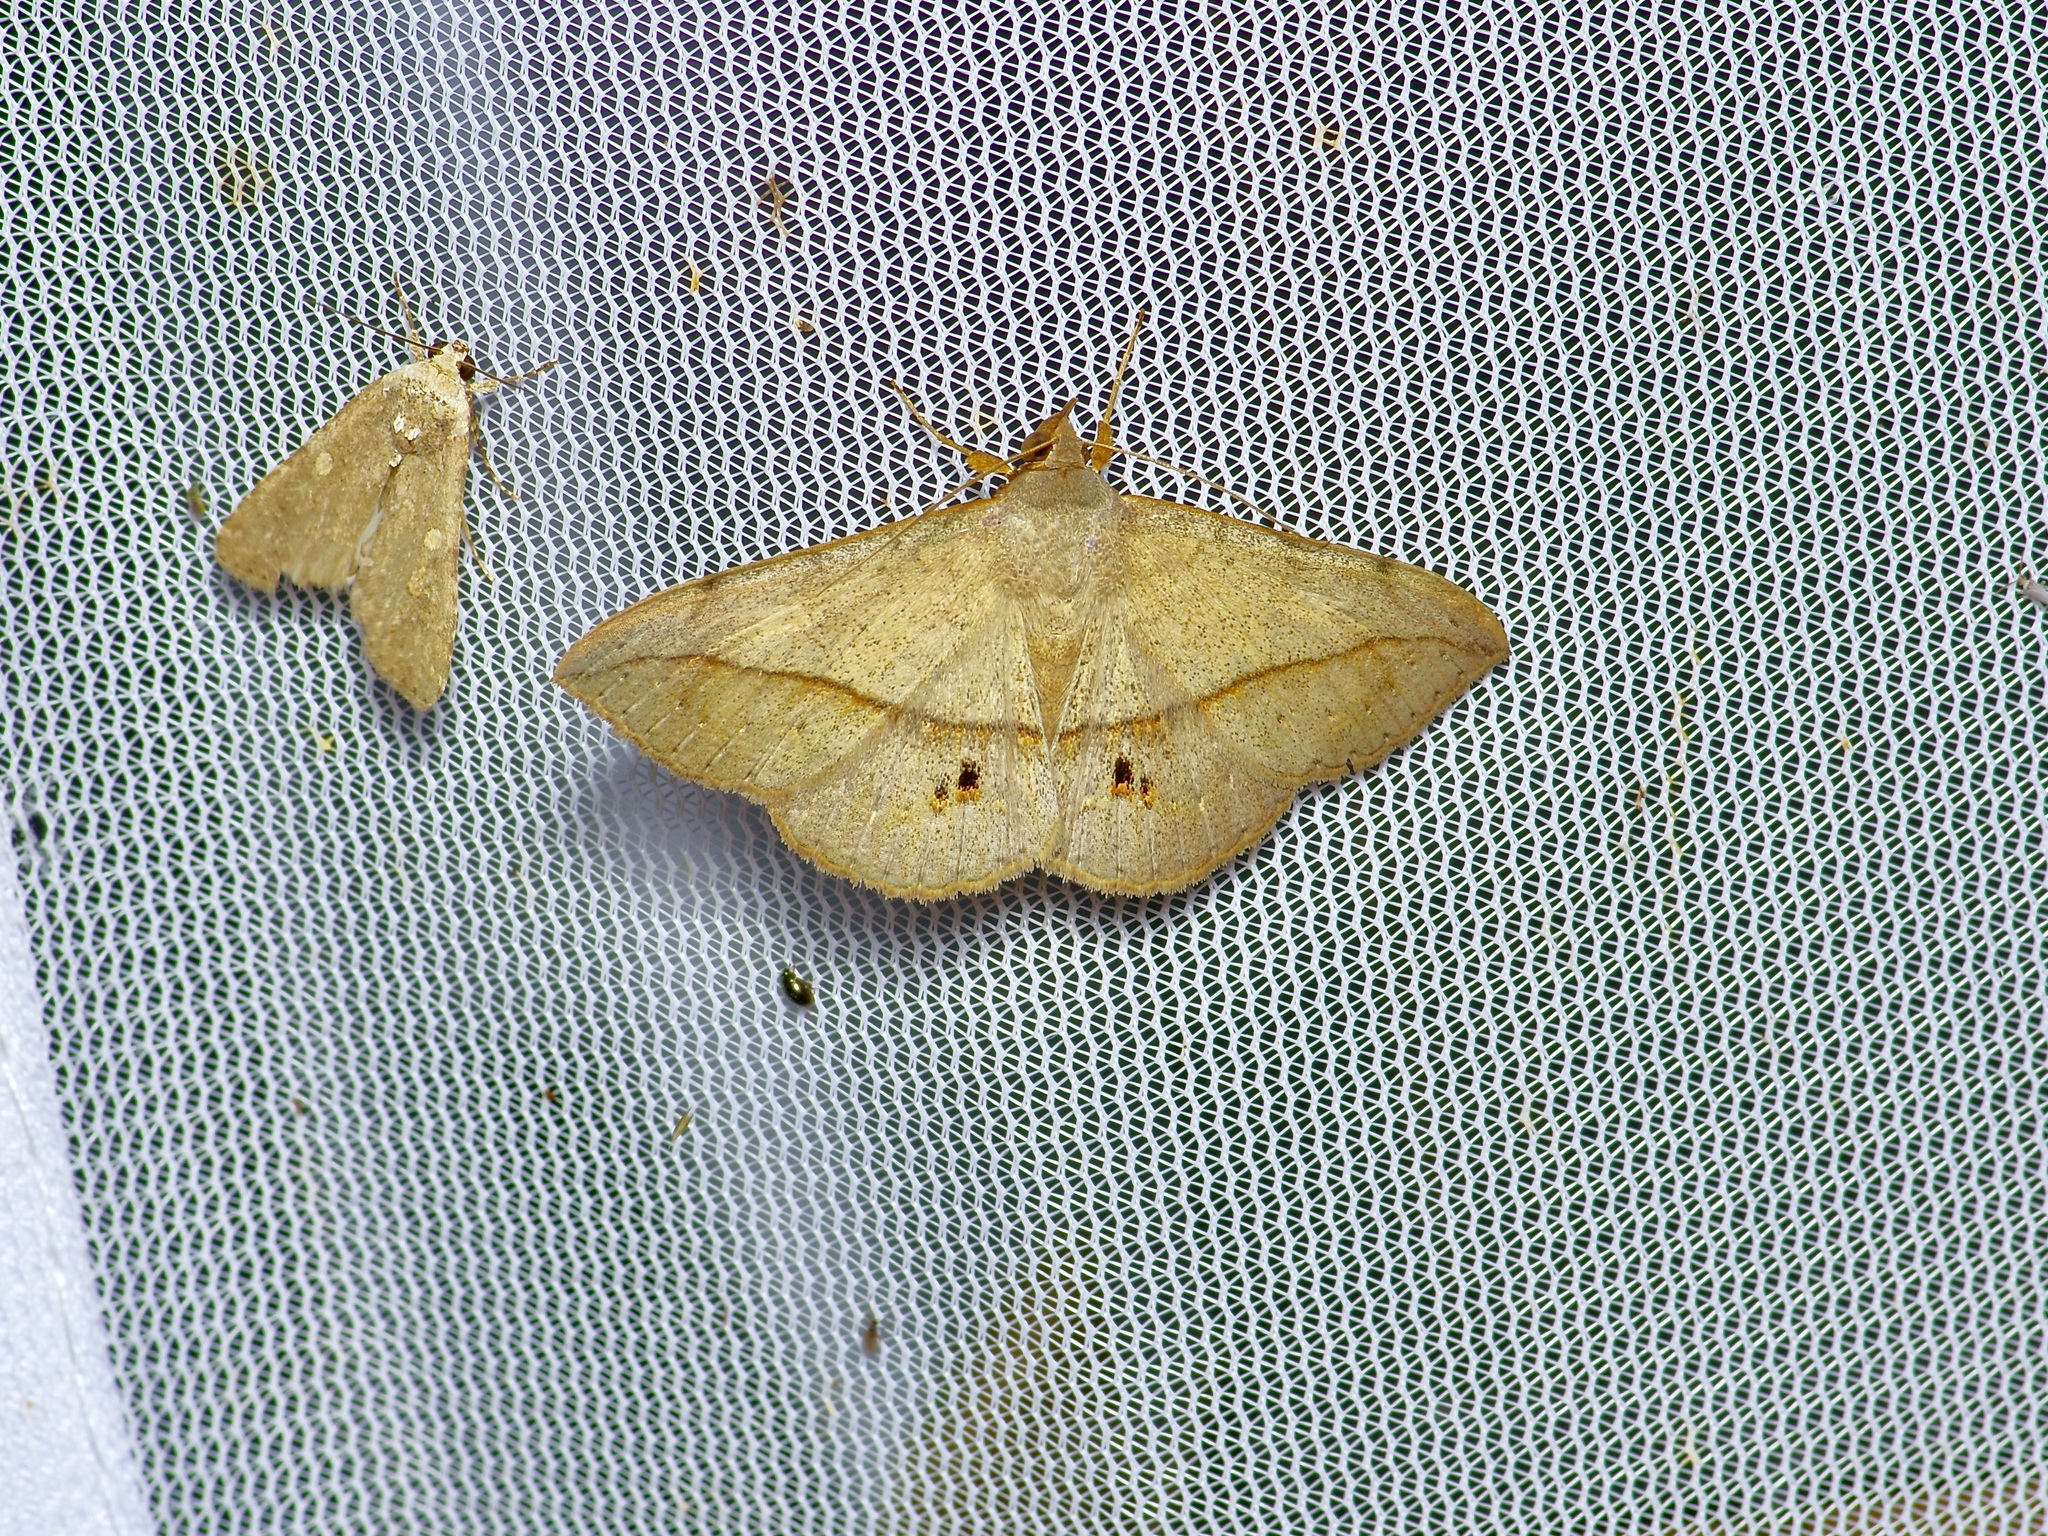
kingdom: Animalia
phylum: Arthropoda
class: Insecta
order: Lepidoptera
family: Erebidae
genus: Anticarsia
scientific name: Anticarsia gemmatalis
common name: Cutworm moth
